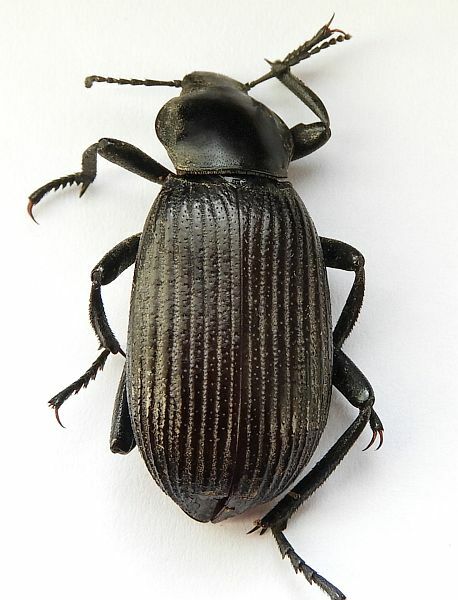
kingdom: Animalia
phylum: Arthropoda
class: Insecta
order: Coleoptera
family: Tenebrionidae
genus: Eleodes
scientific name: Eleodes obscura
